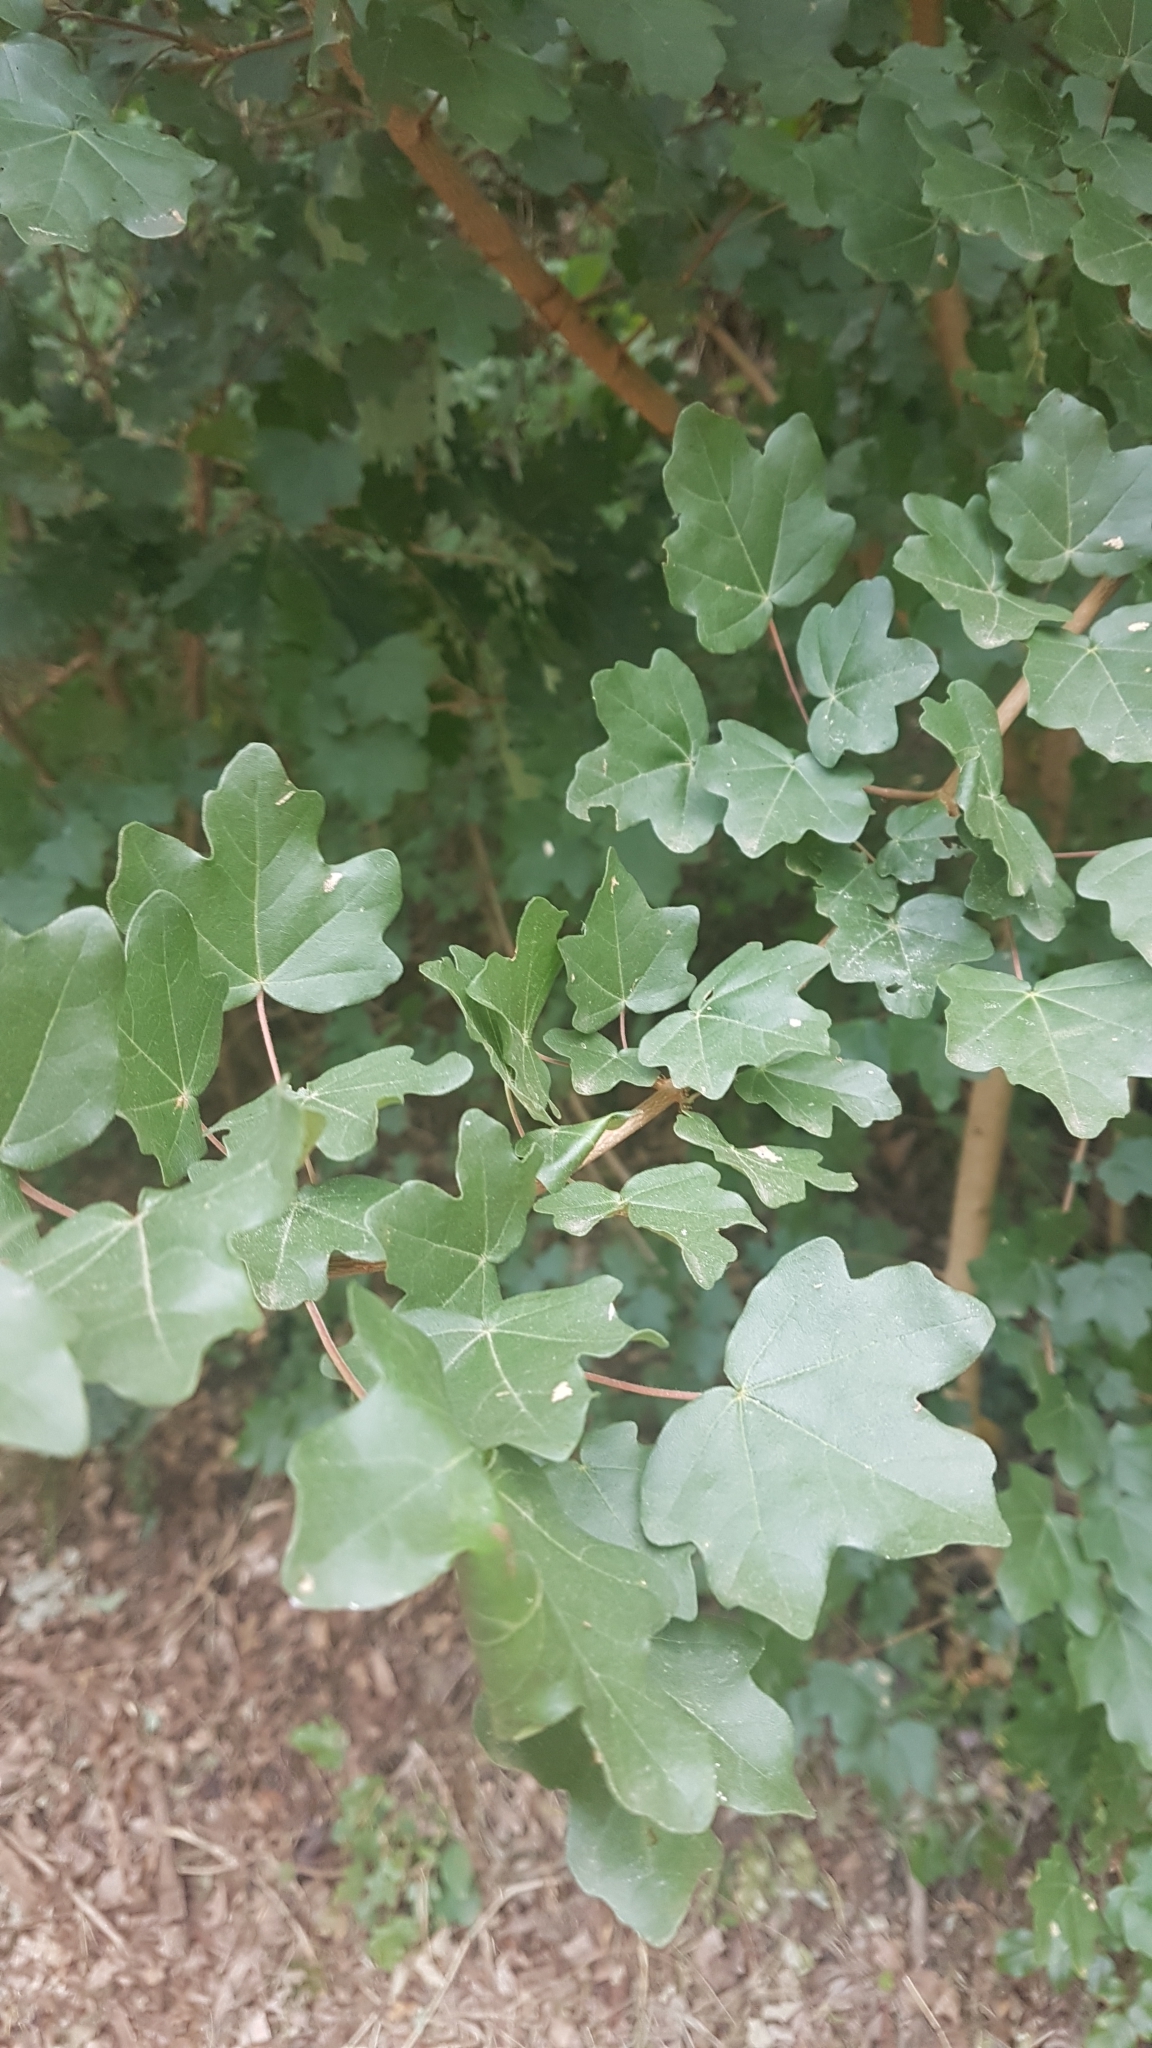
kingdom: Plantae
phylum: Tracheophyta
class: Magnoliopsida
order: Sapindales
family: Sapindaceae
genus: Acer
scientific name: Acer campestre
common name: Field maple
